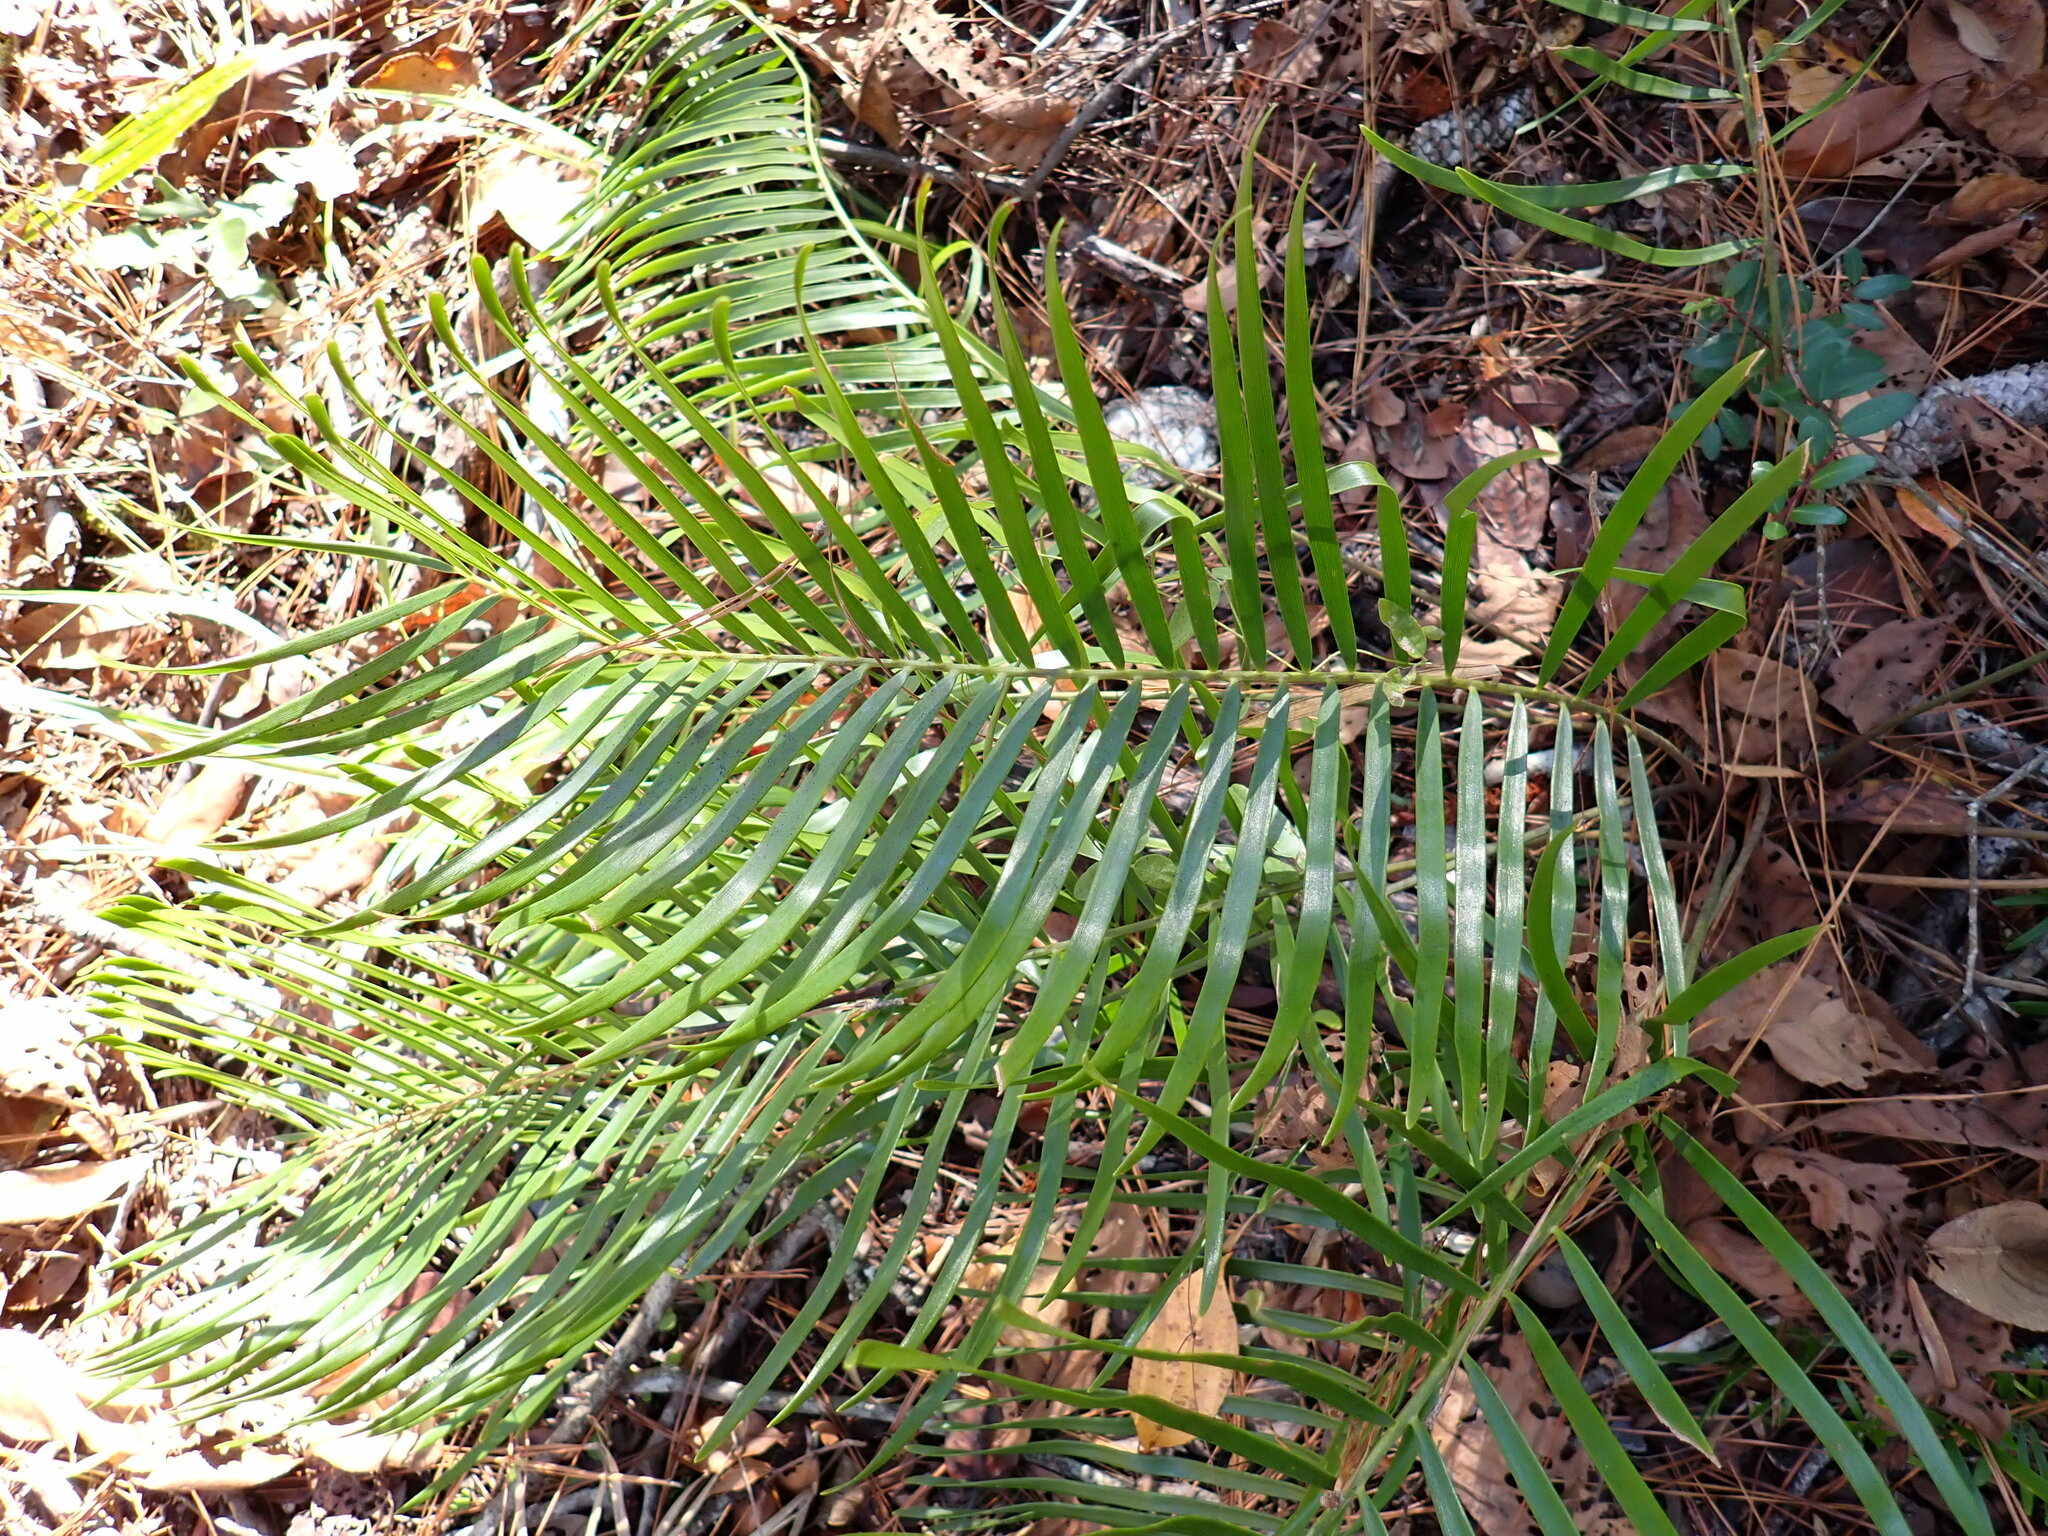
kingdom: Plantae
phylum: Tracheophyta
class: Cycadopsida
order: Cycadales
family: Zamiaceae
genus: Zamia
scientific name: Zamia integrifolia
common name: Florida arrowroot
